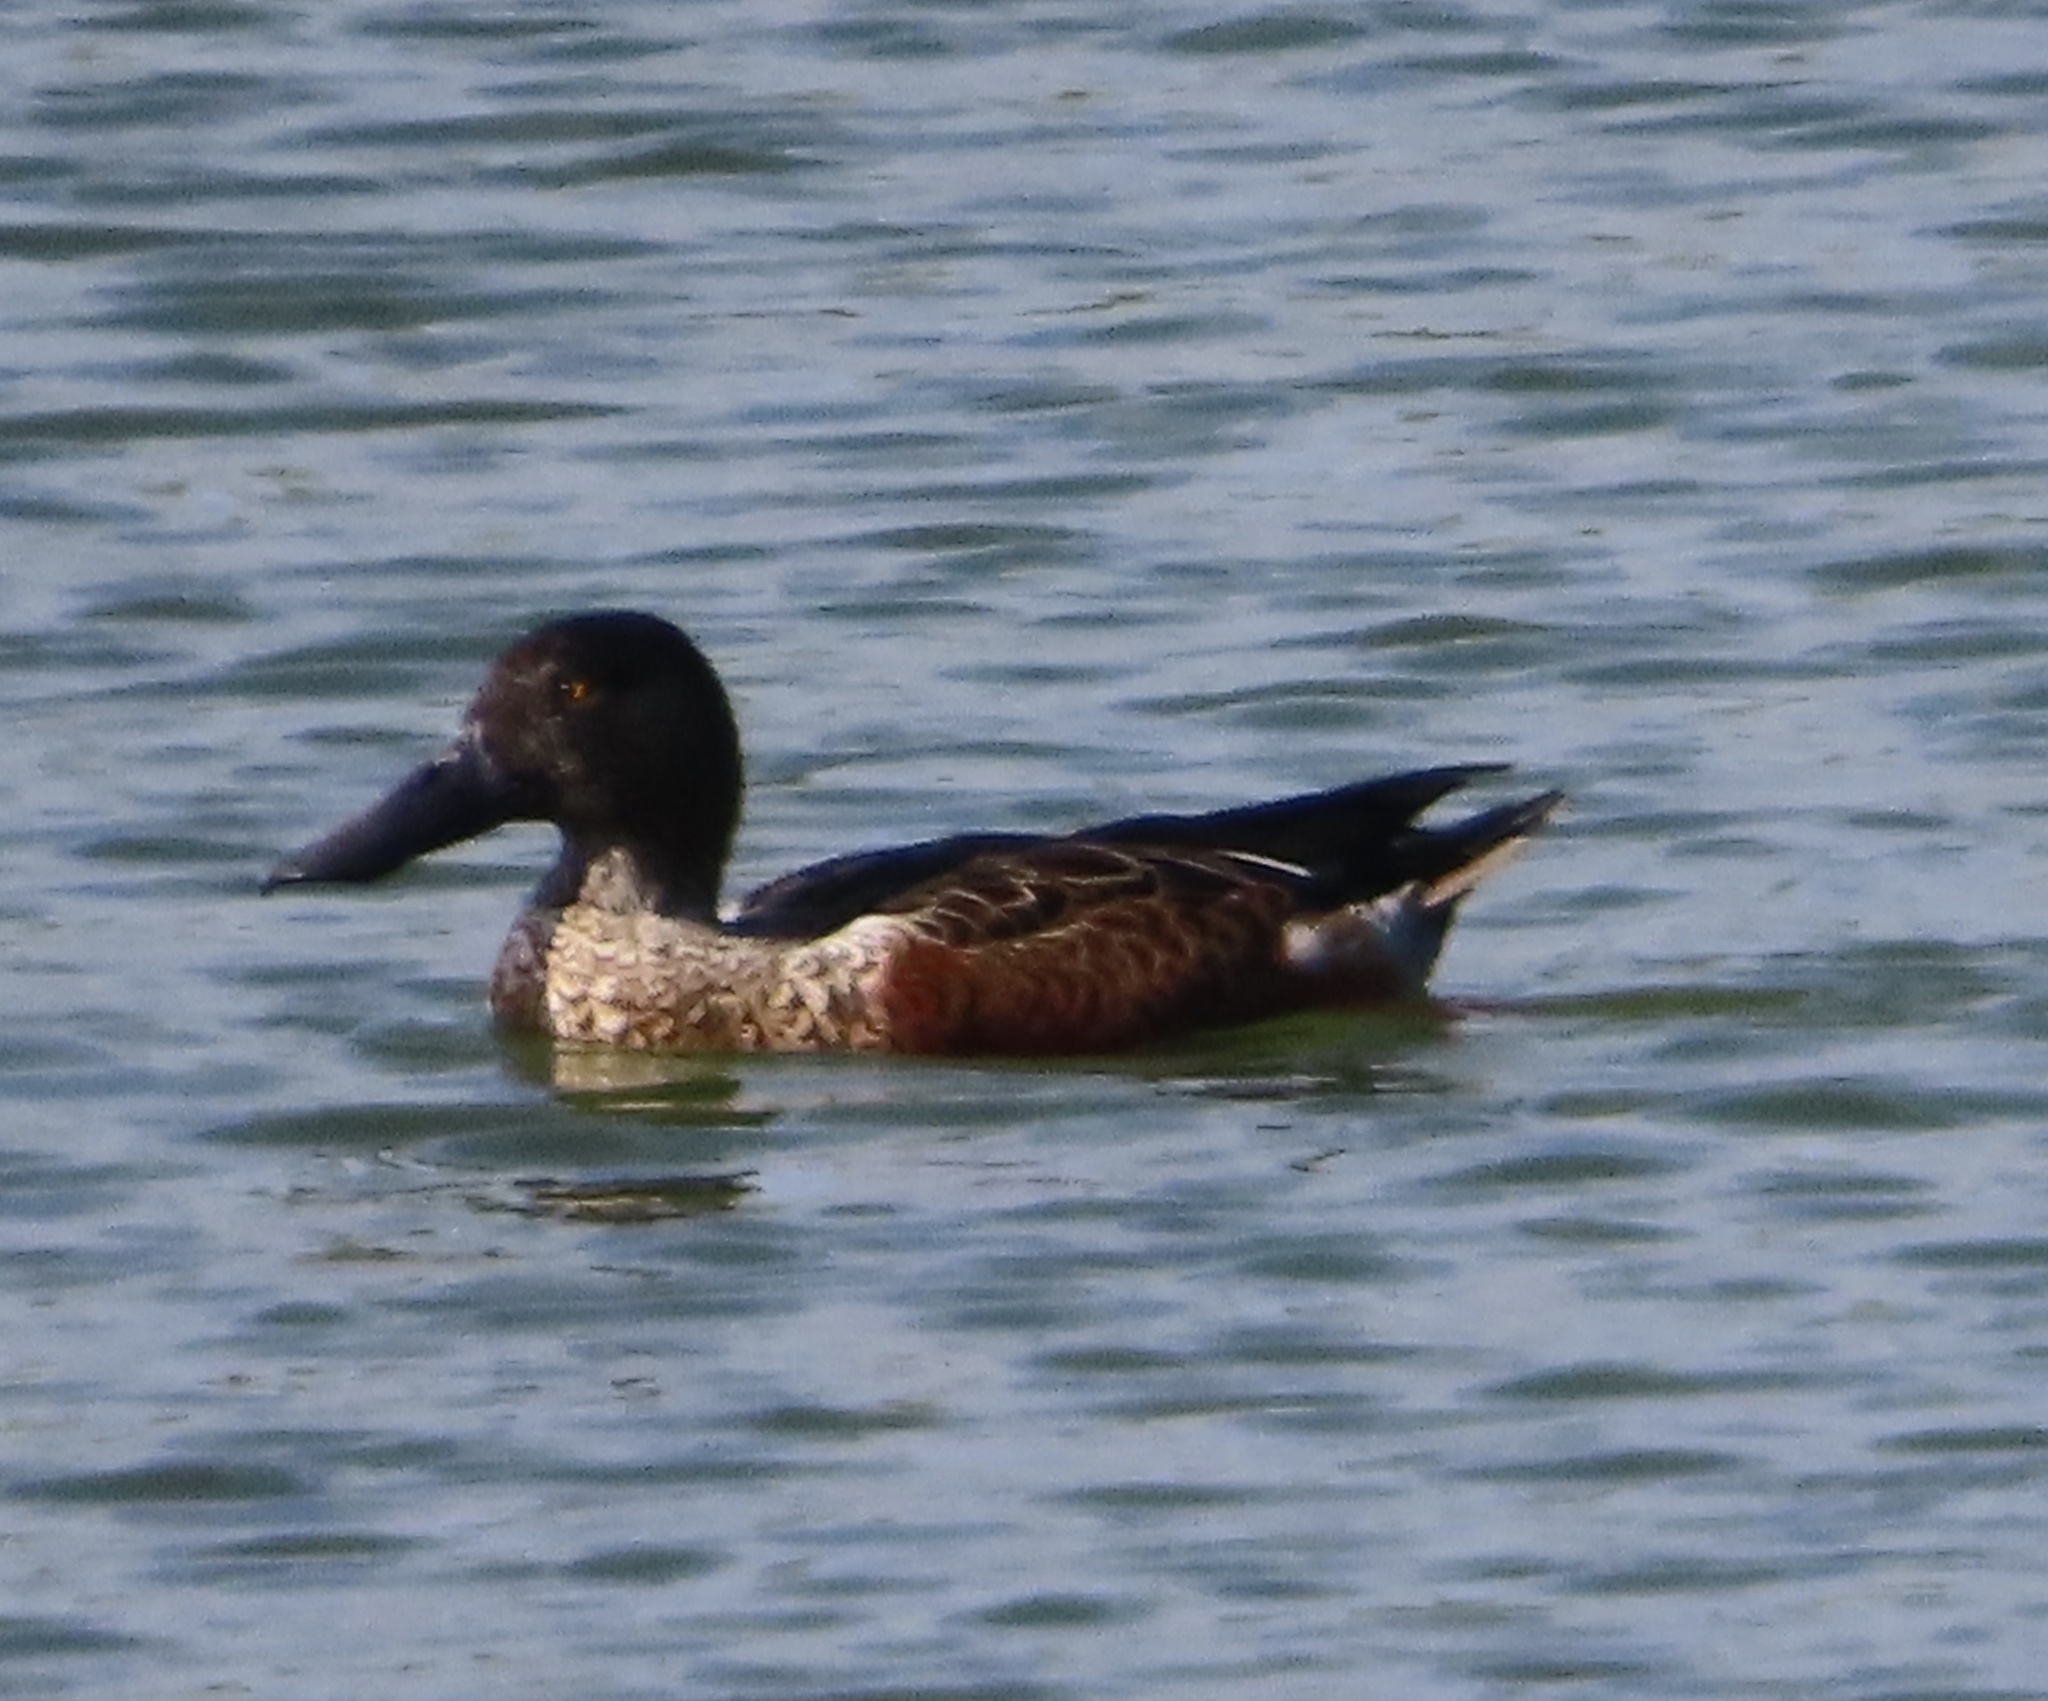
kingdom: Animalia
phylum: Chordata
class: Aves
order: Anseriformes
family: Anatidae
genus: Spatula
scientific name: Spatula clypeata
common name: Northern shoveler
